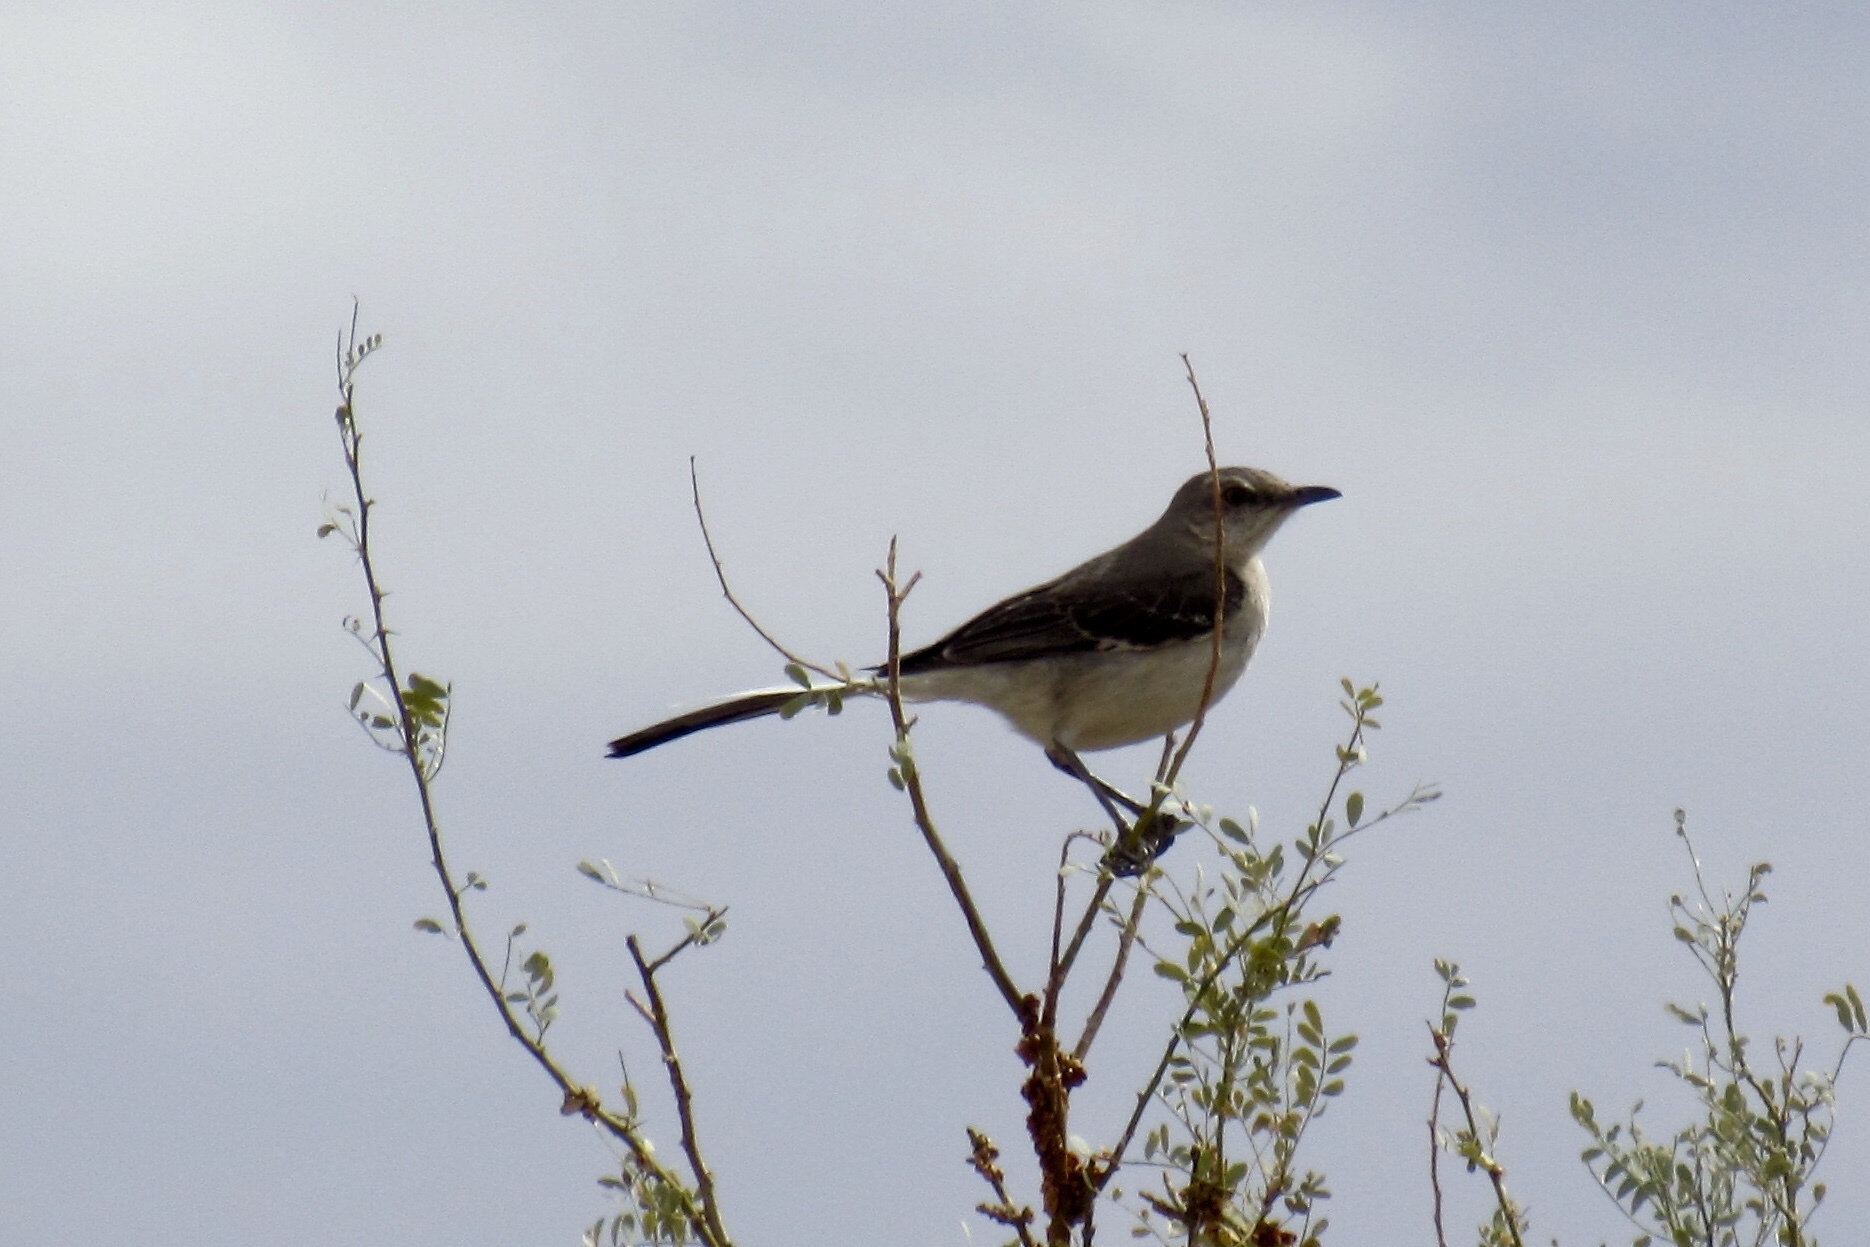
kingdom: Animalia
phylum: Chordata
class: Aves
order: Passeriformes
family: Mimidae
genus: Mimus
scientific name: Mimus polyglottos
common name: Northern mockingbird
